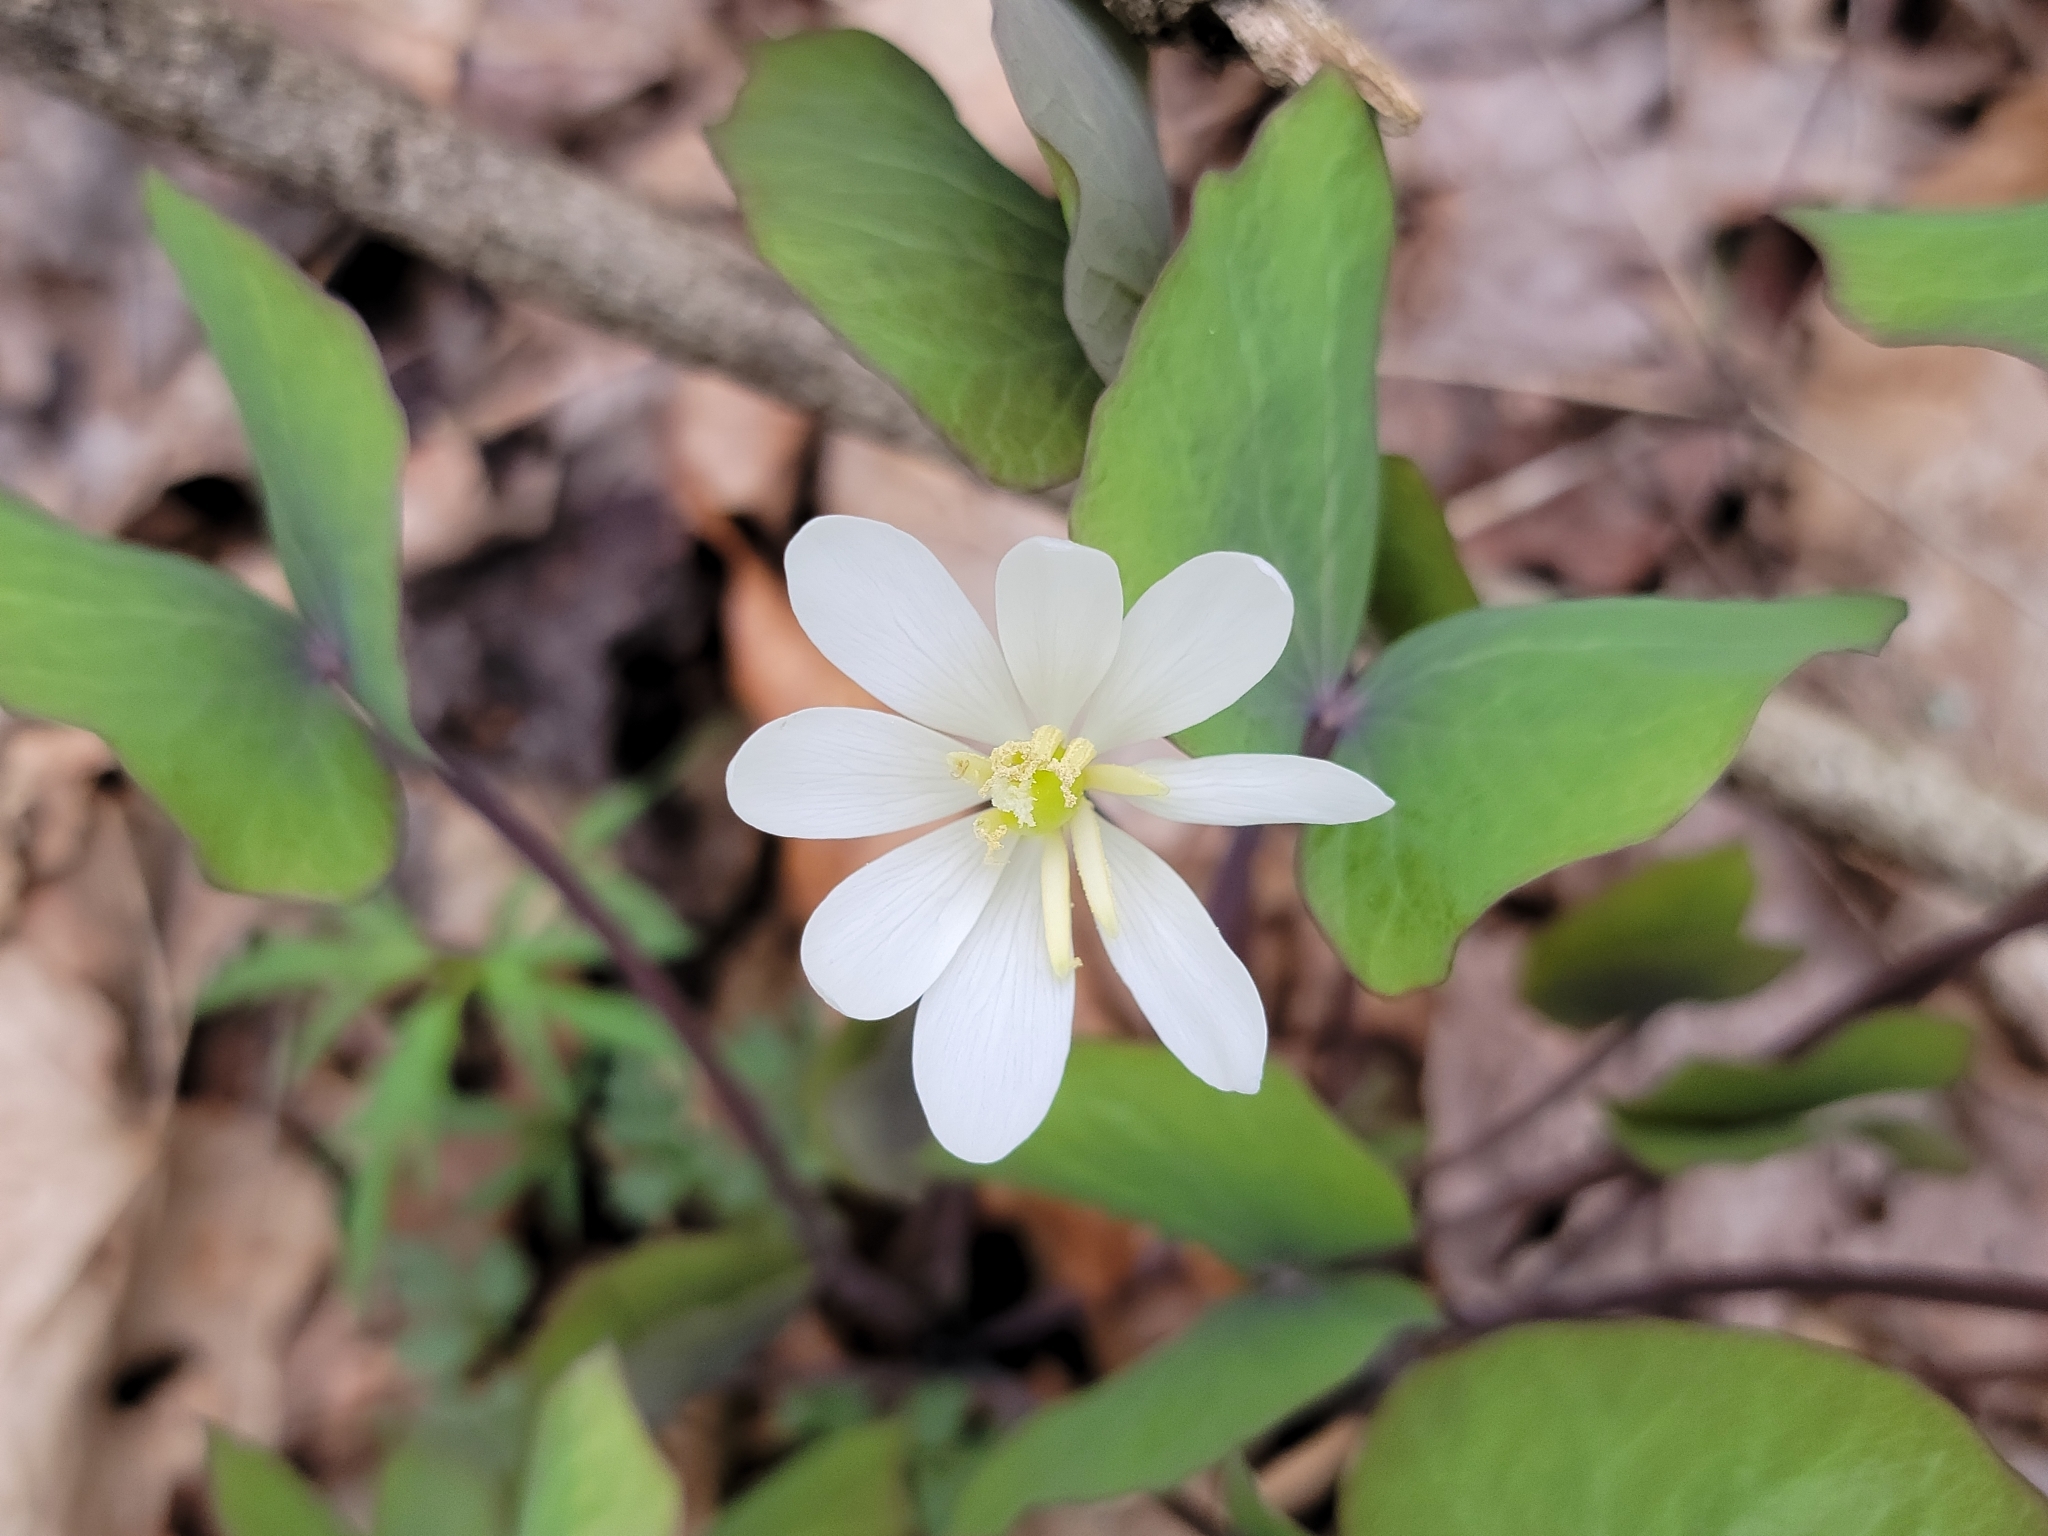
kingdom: Plantae
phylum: Tracheophyta
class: Magnoliopsida
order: Ranunculales
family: Berberidaceae
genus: Jeffersonia
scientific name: Jeffersonia diphylla
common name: Rheumatism-root
